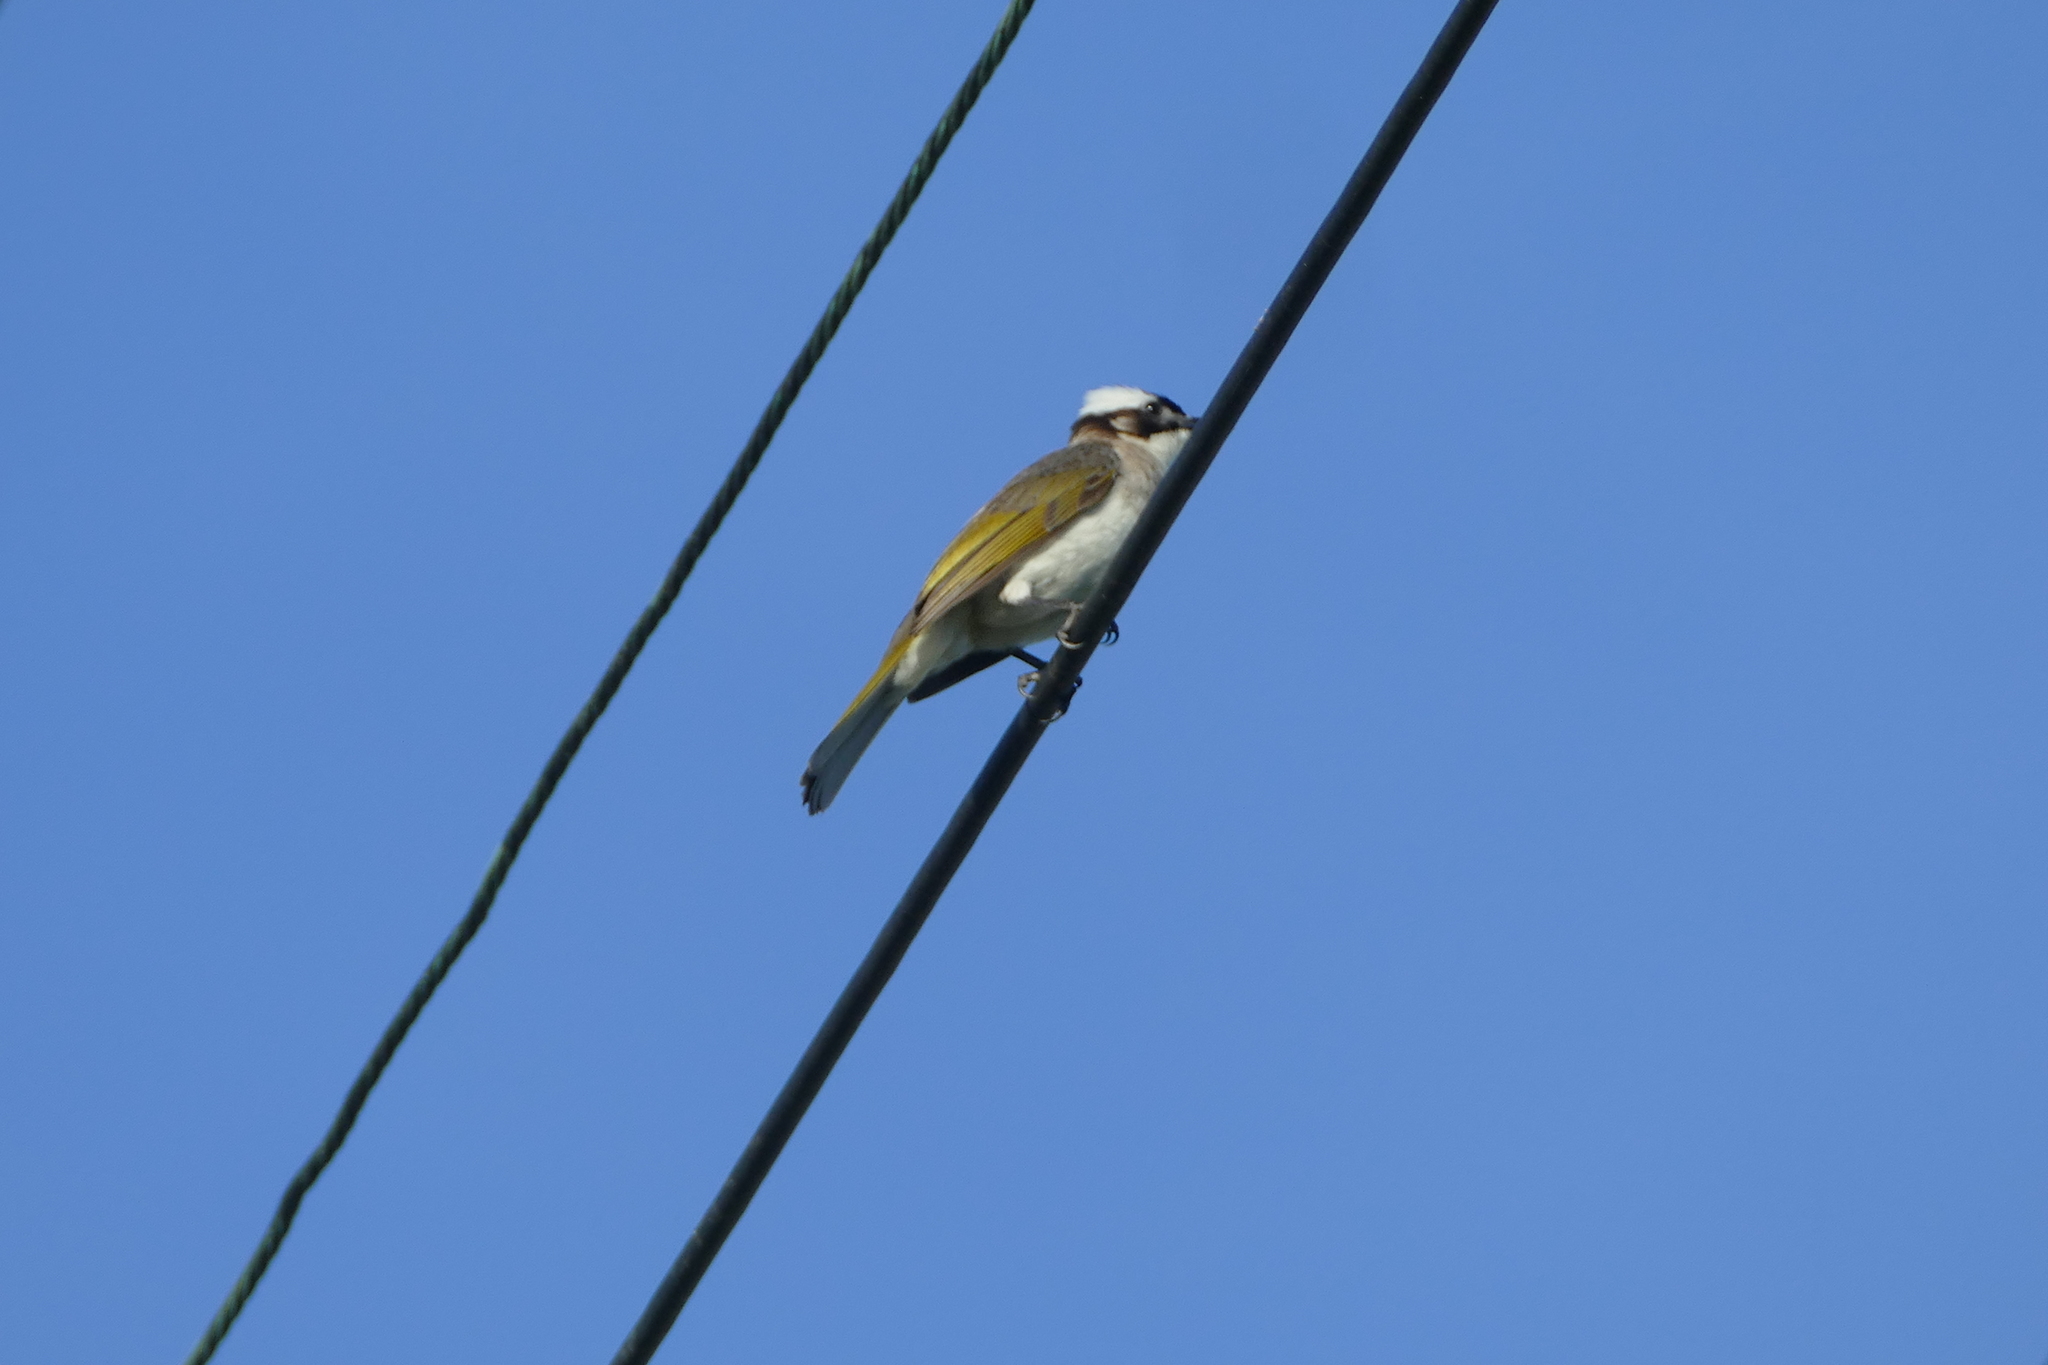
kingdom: Animalia
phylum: Chordata
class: Aves
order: Passeriformes
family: Pycnonotidae
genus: Pycnonotus
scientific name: Pycnonotus sinensis
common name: Light-vented bulbul
